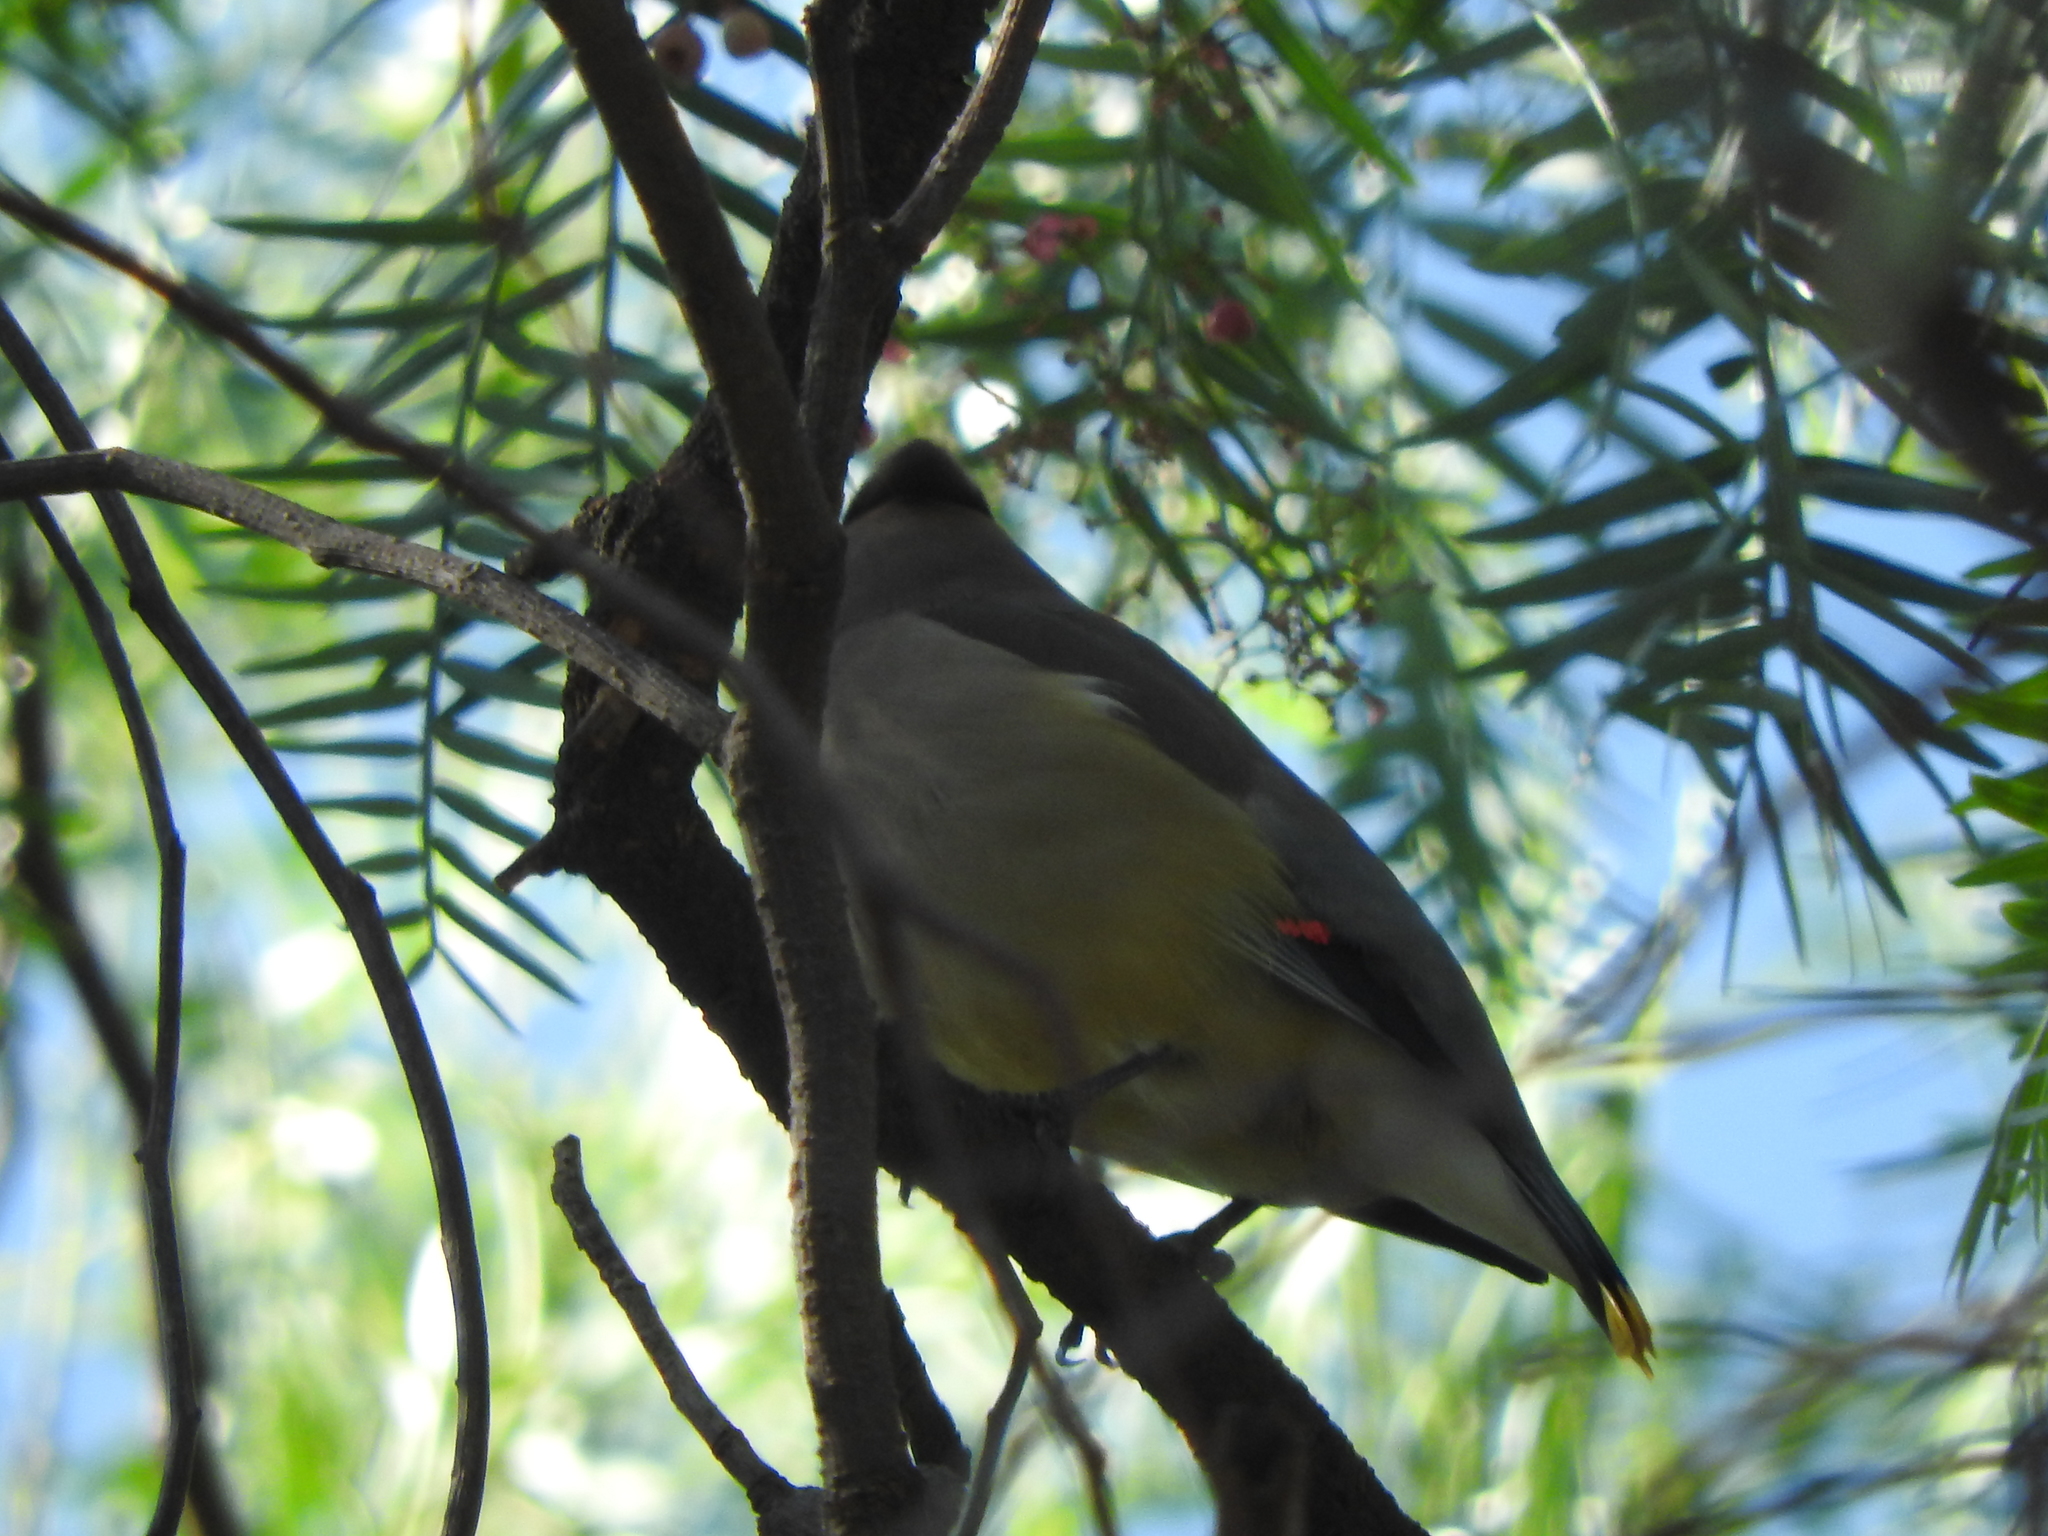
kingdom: Animalia
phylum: Chordata
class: Aves
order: Passeriformes
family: Bombycillidae
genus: Bombycilla
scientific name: Bombycilla cedrorum
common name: Cedar waxwing
